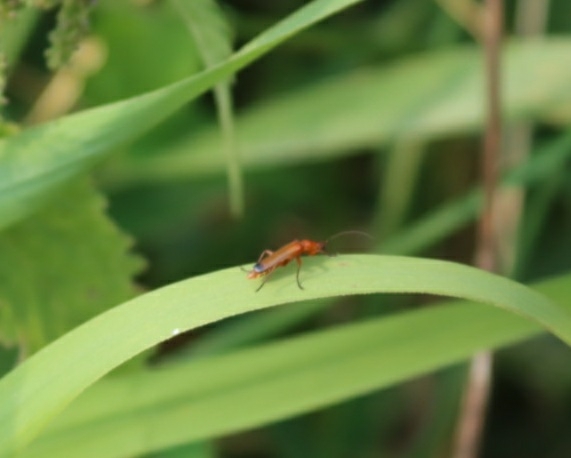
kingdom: Animalia
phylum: Arthropoda
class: Insecta
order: Coleoptera
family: Cantharidae
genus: Rhagonycha
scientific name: Rhagonycha fulva
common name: Common red soldier beetle
